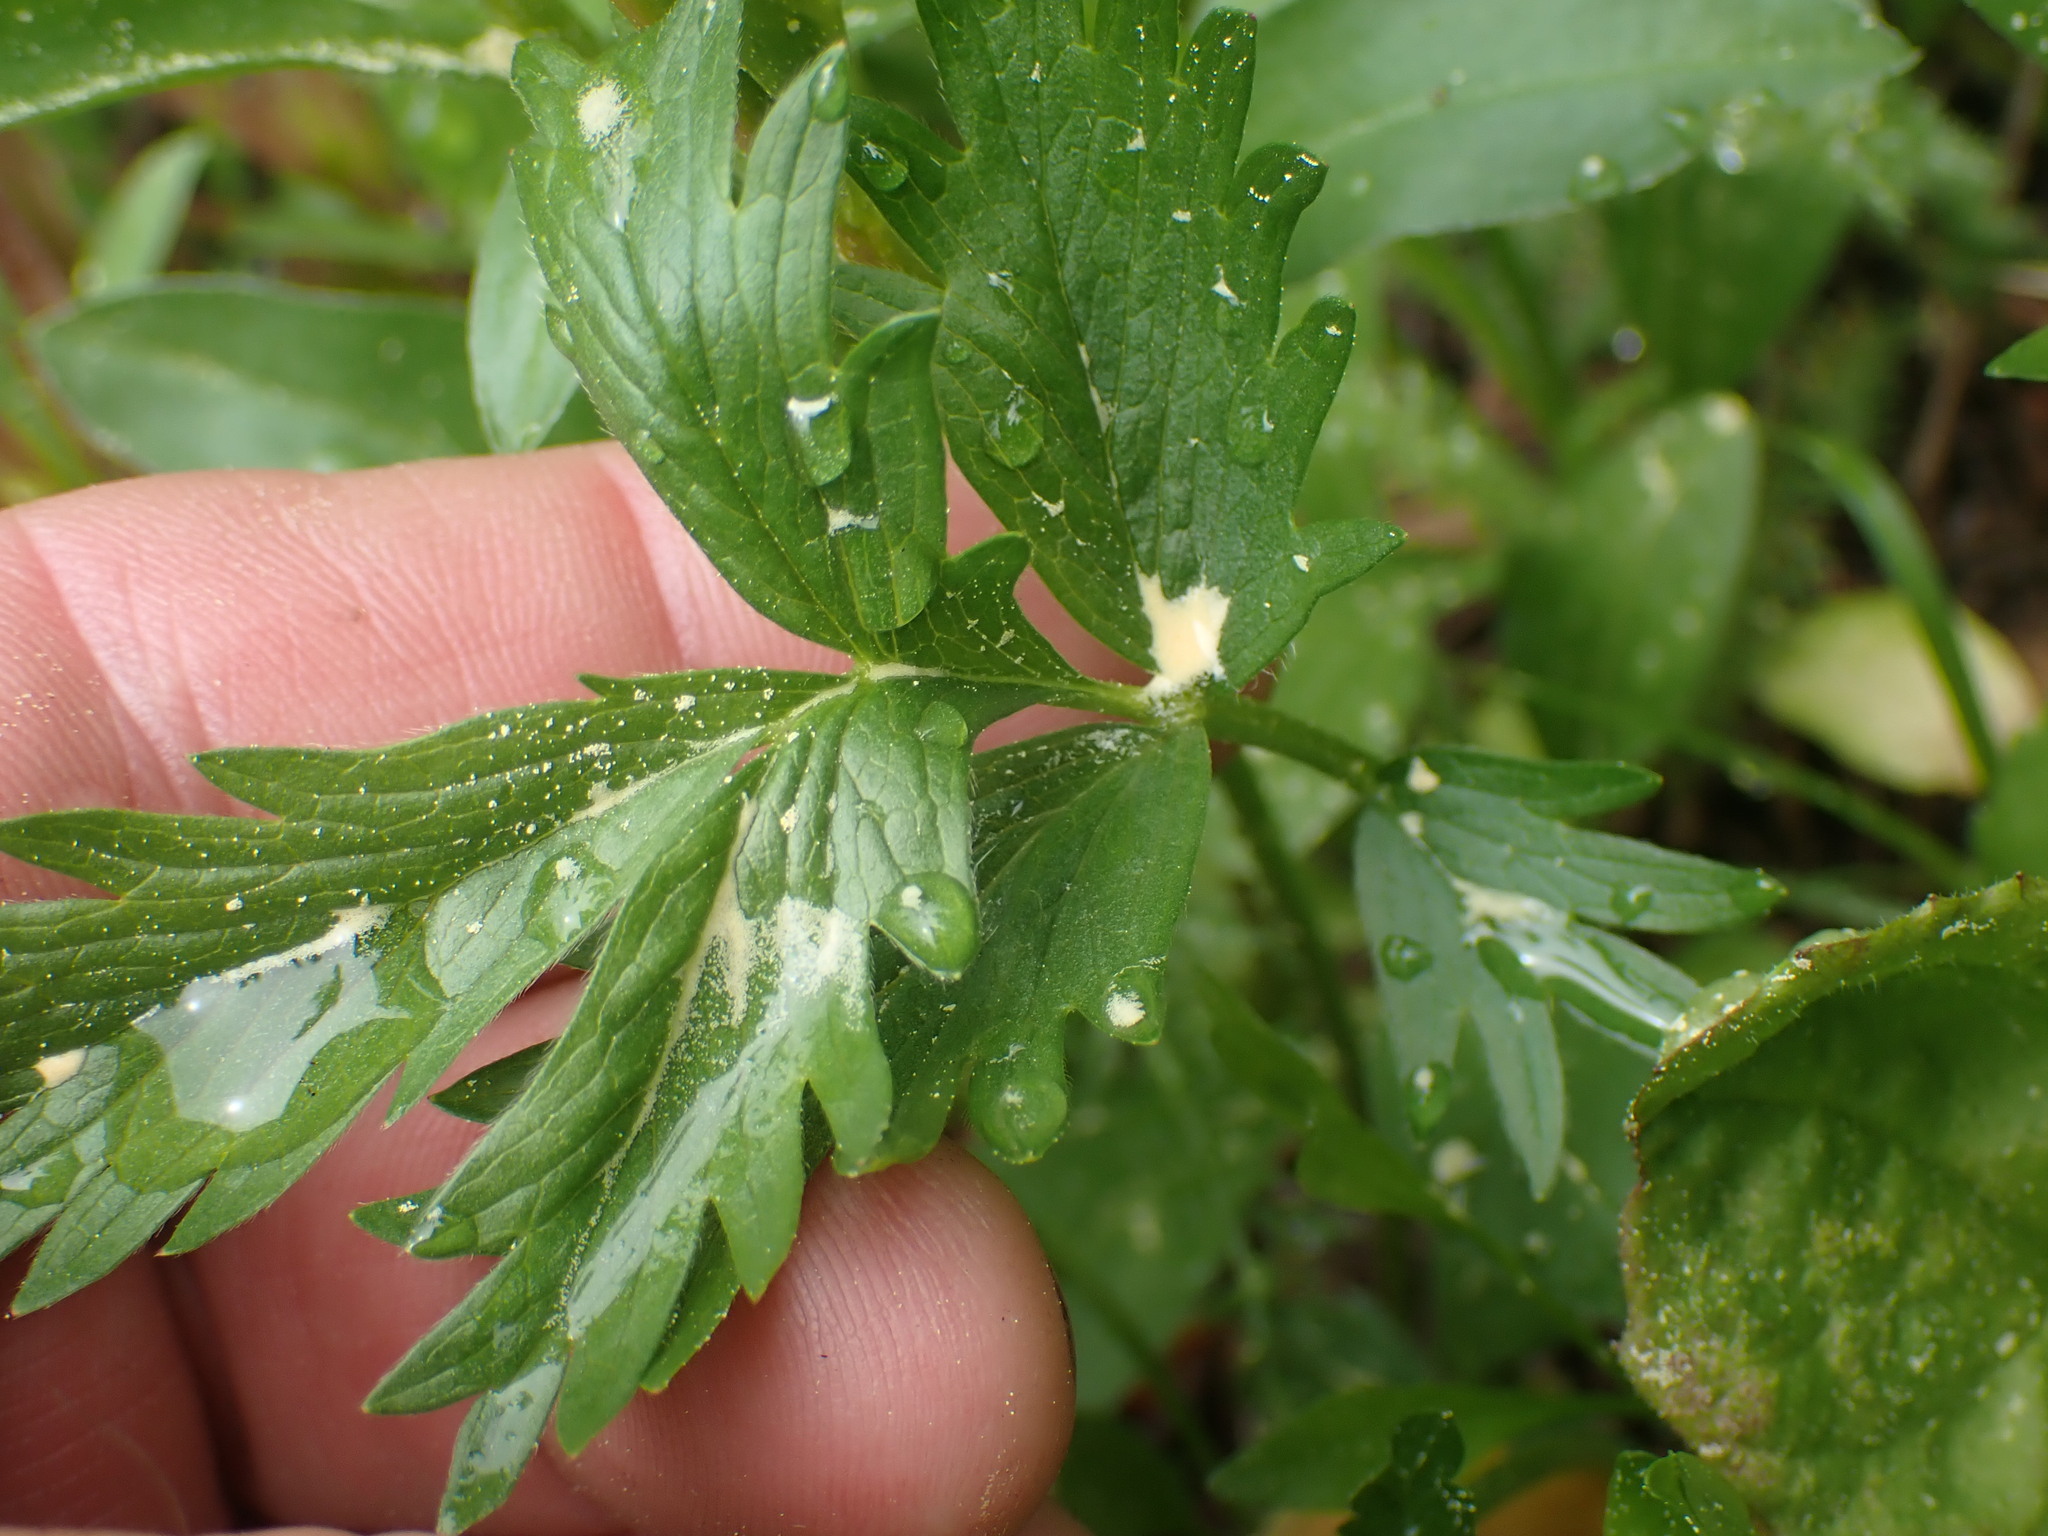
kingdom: Plantae
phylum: Tracheophyta
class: Magnoliopsida
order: Rosales
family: Rosaceae
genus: Potentilla
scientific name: Potentilla drummondii
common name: Drummond's cinquefoil
